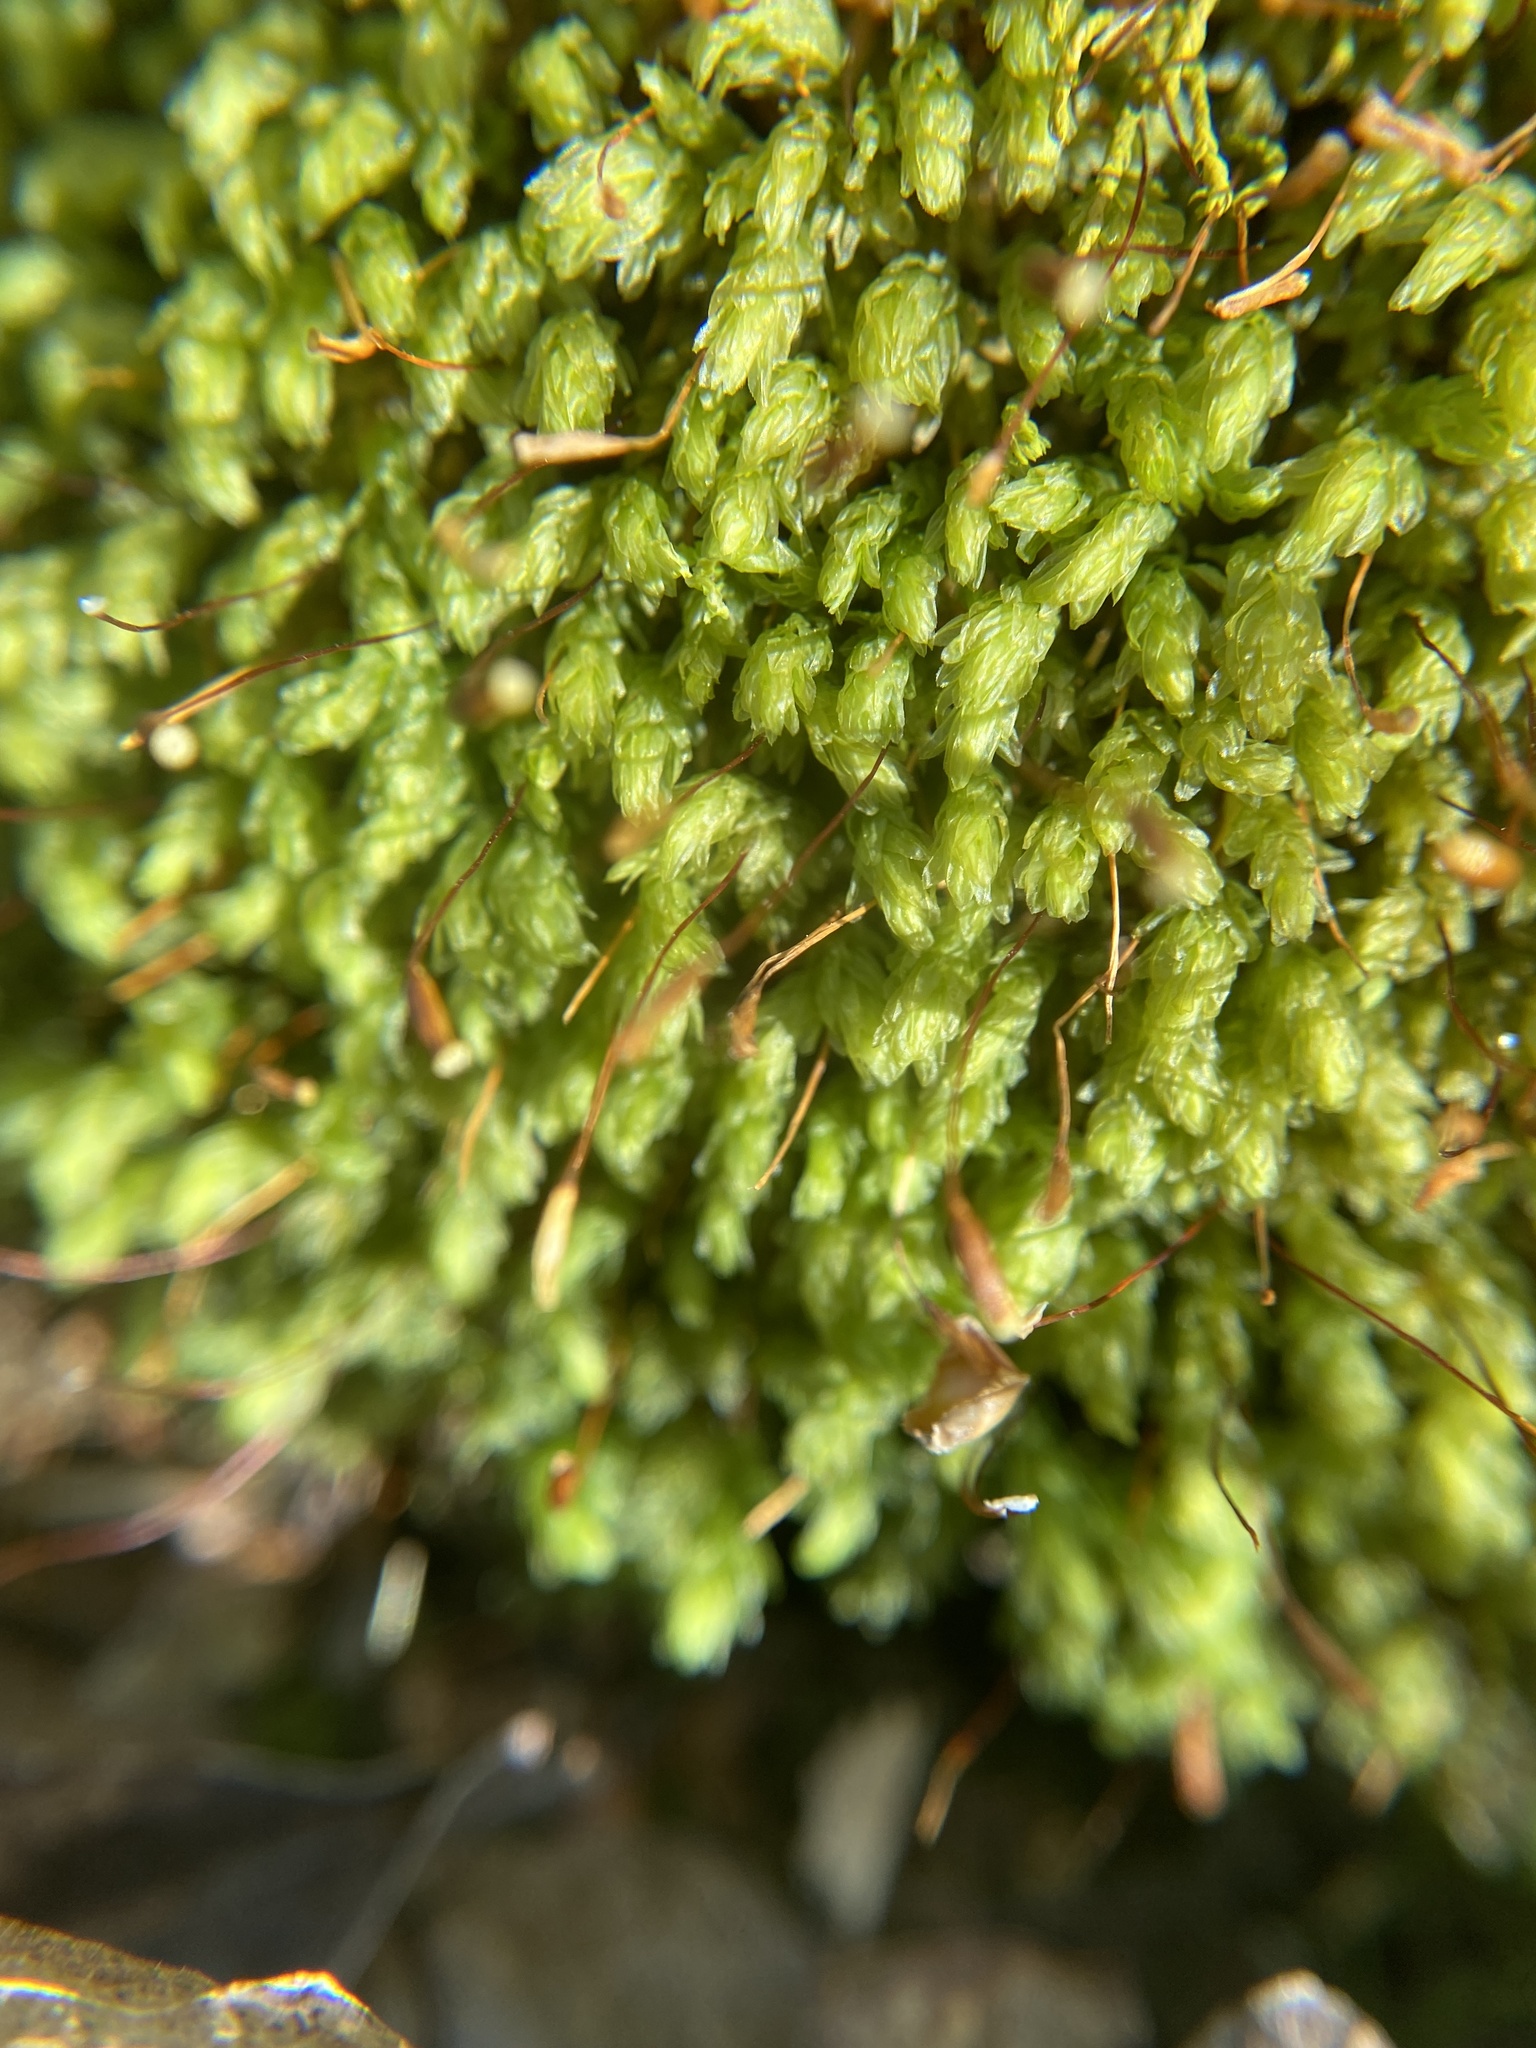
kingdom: Plantae
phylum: Bryophyta
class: Bryopsida
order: Aulacomniales
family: Aulacomniaceae
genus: Aulacomnium
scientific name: Aulacomnium heterostichum
